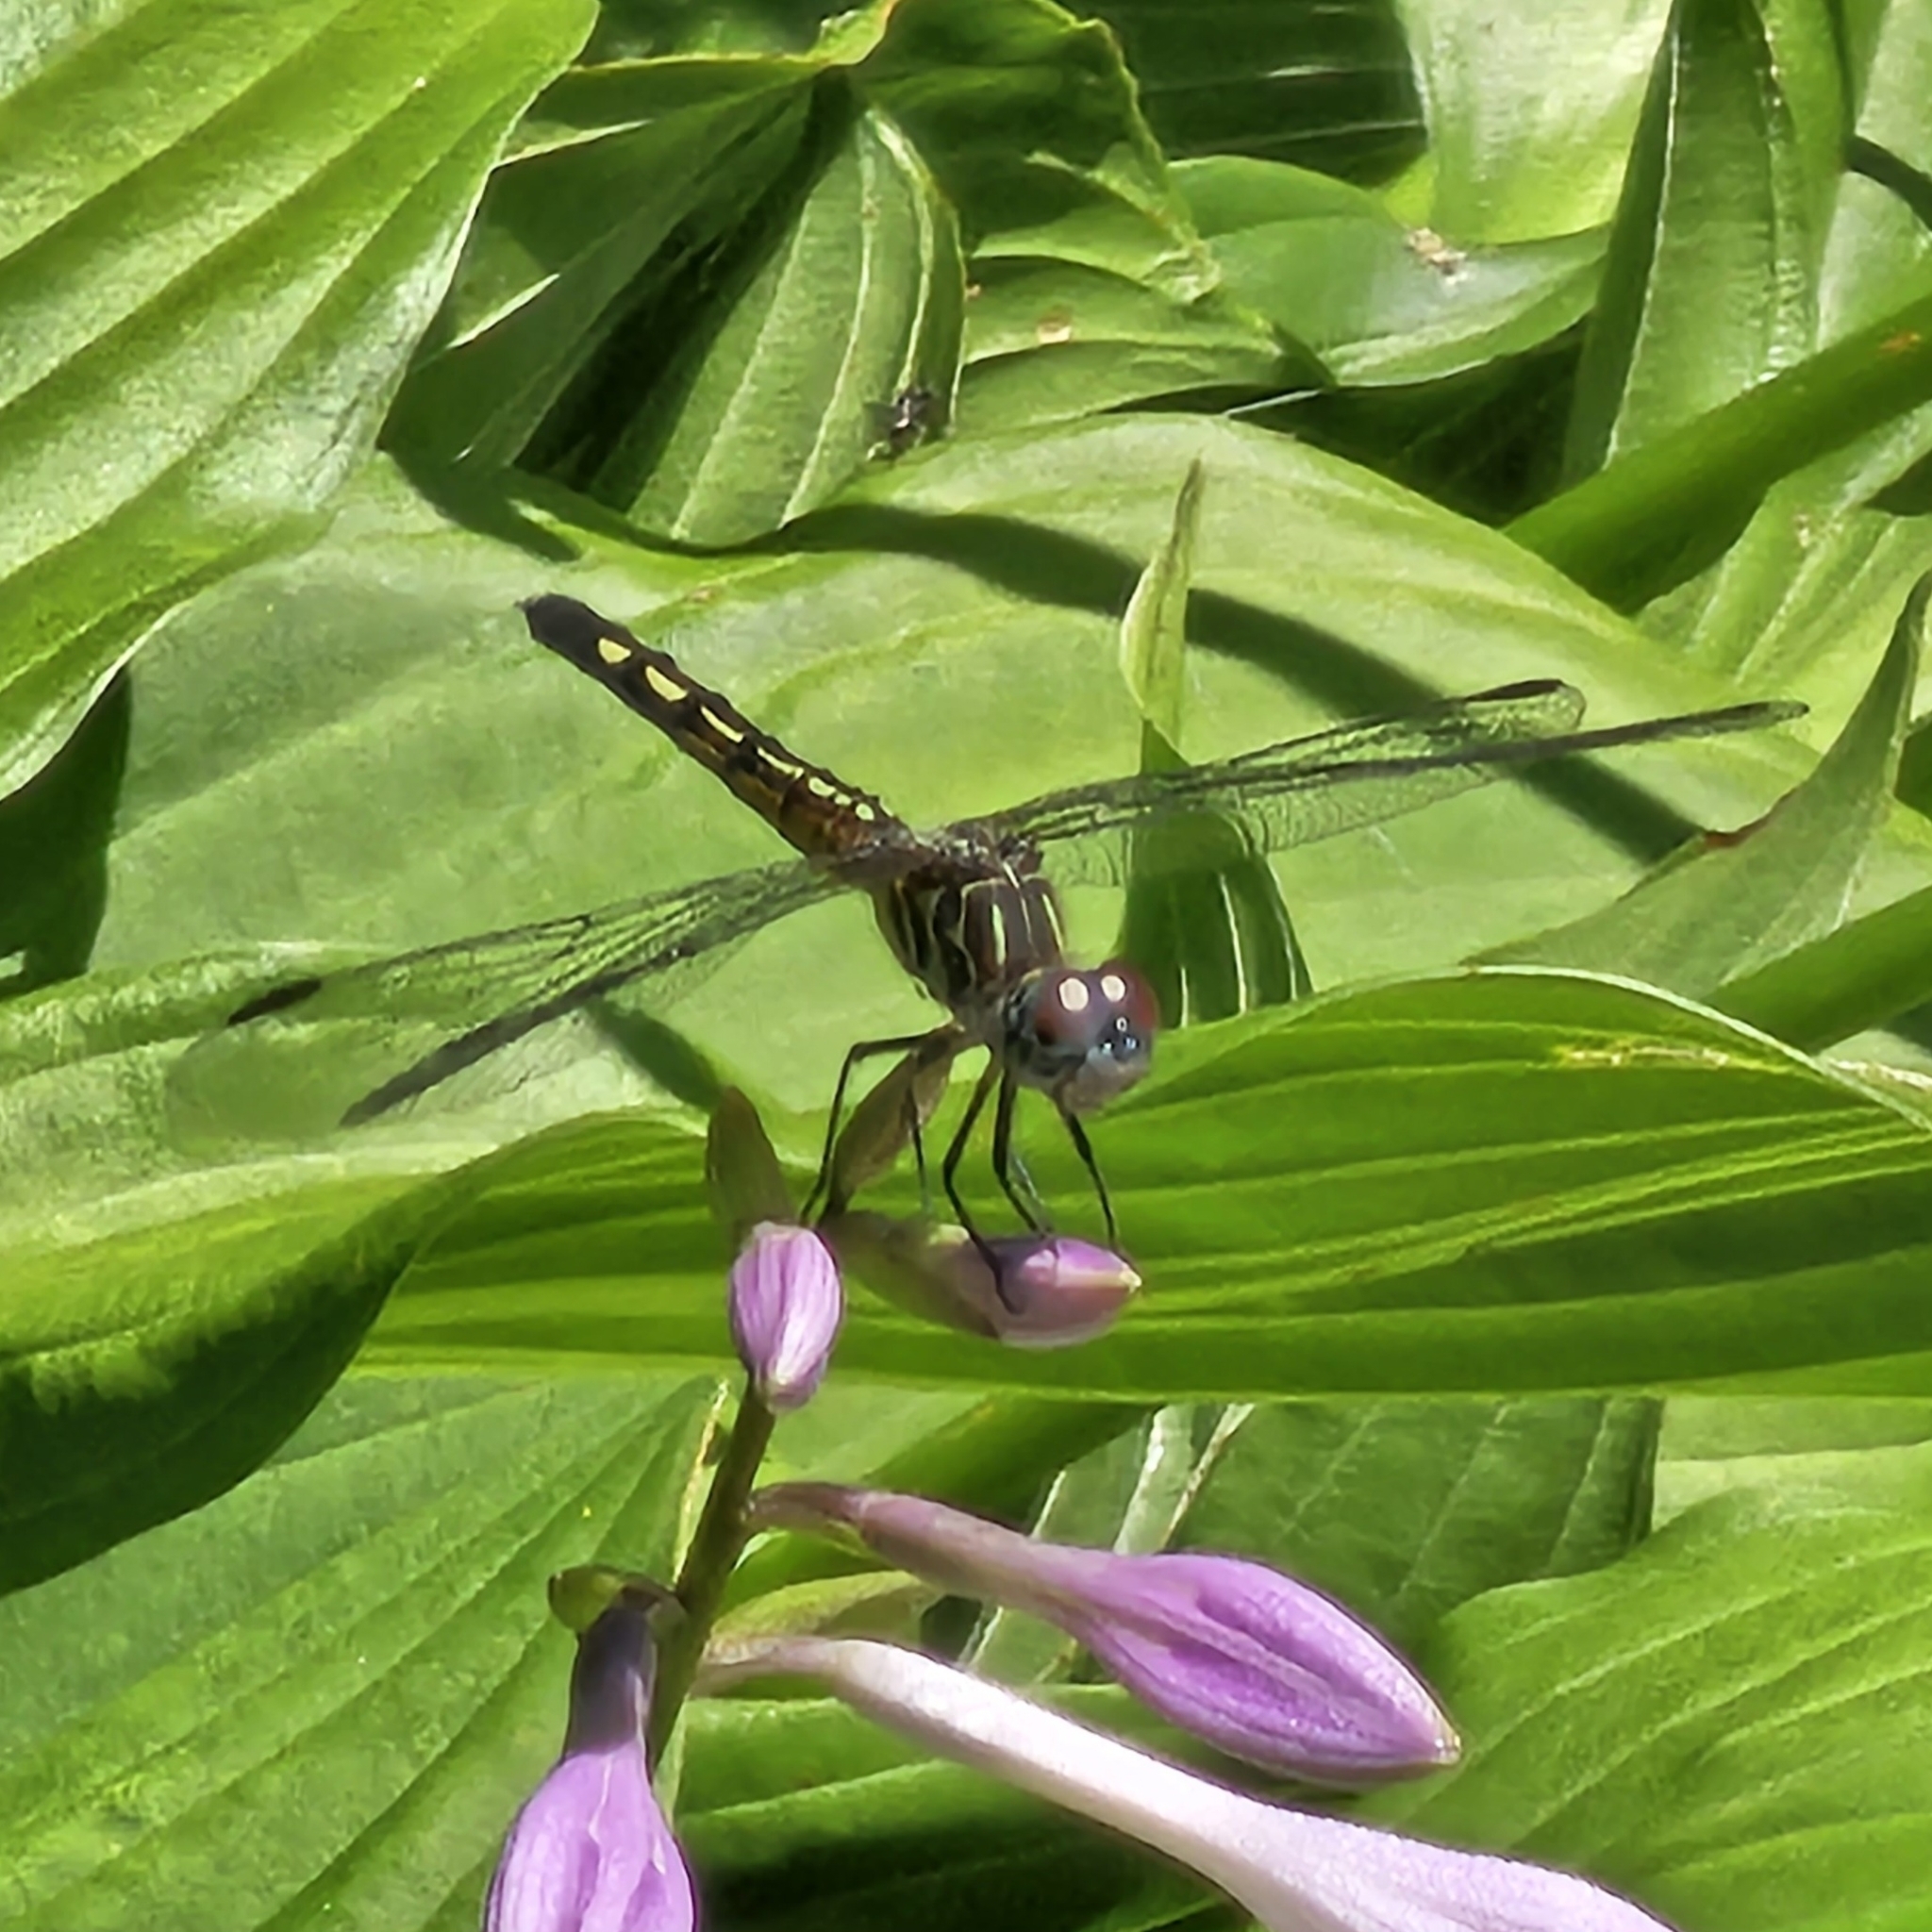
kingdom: Animalia
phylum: Arthropoda
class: Insecta
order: Odonata
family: Libellulidae
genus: Pachydiplax
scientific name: Pachydiplax longipennis
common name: Blue dasher
